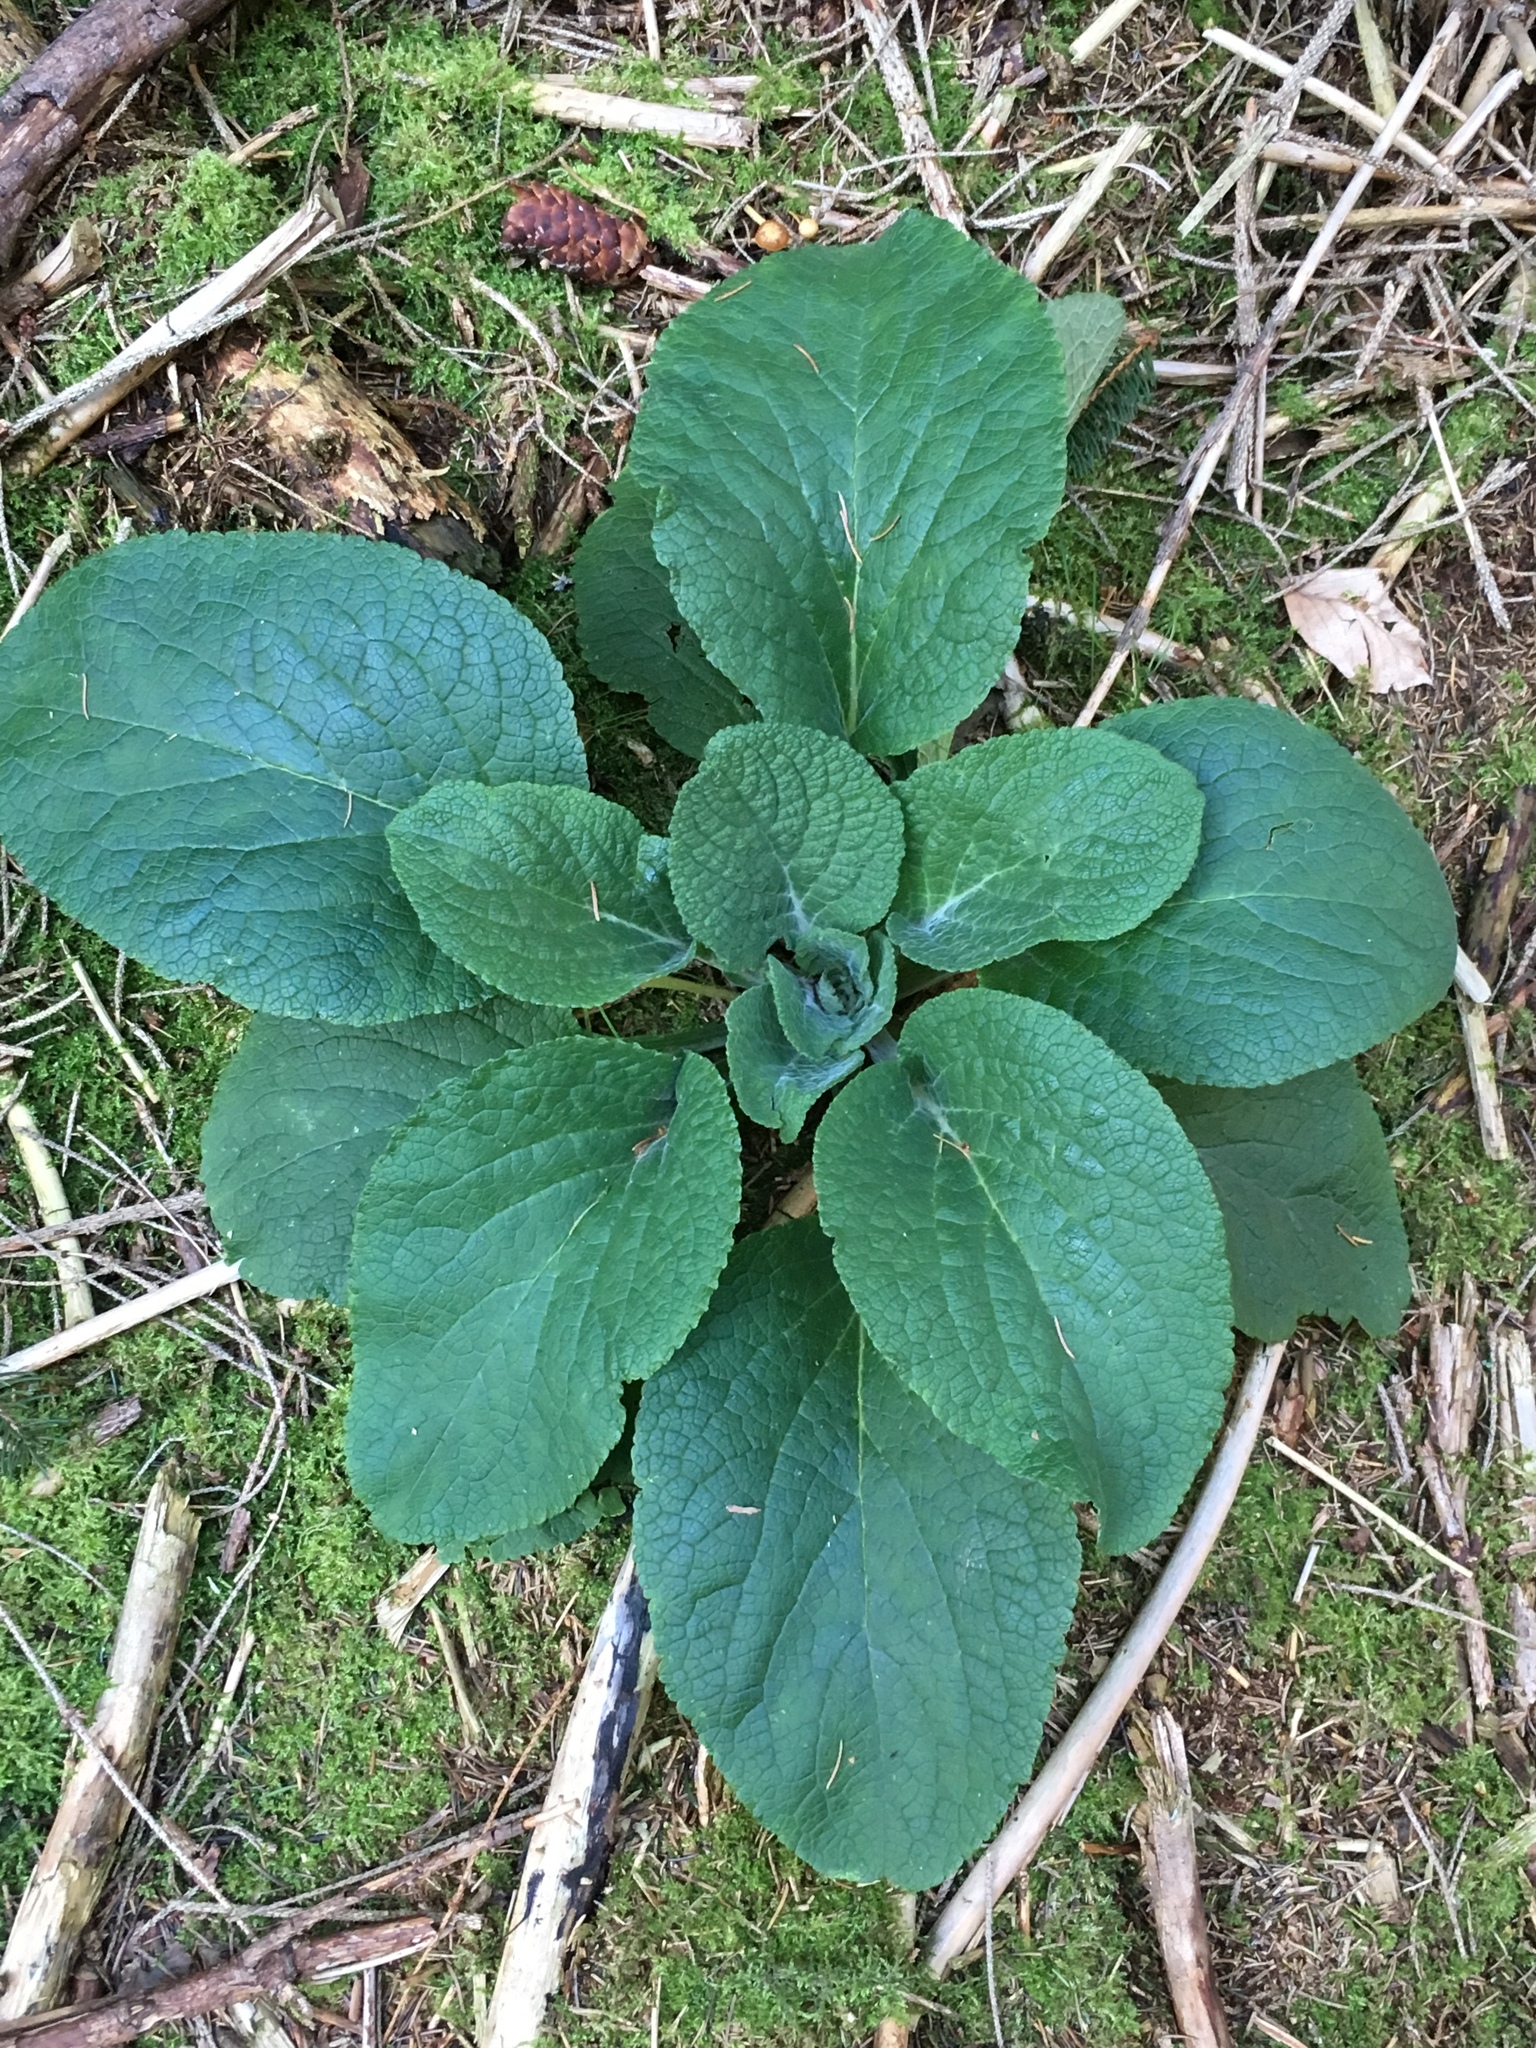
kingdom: Plantae
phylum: Tracheophyta
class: Magnoliopsida
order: Lamiales
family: Plantaginaceae
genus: Digitalis
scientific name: Digitalis purpurea
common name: Foxglove
